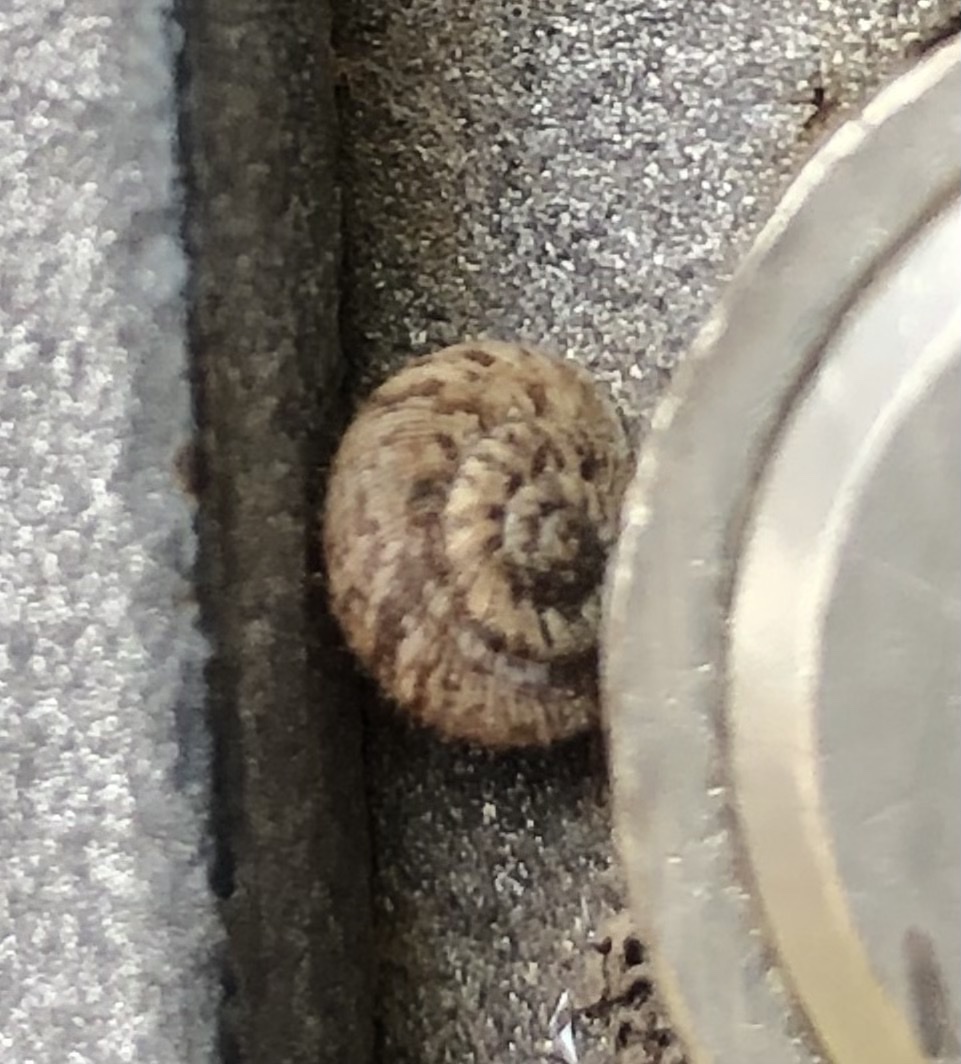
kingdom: Animalia
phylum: Mollusca
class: Gastropoda
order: Stylommatophora
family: Geomitridae
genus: Xerotricha
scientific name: Xerotricha conspurcata
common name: Snail
